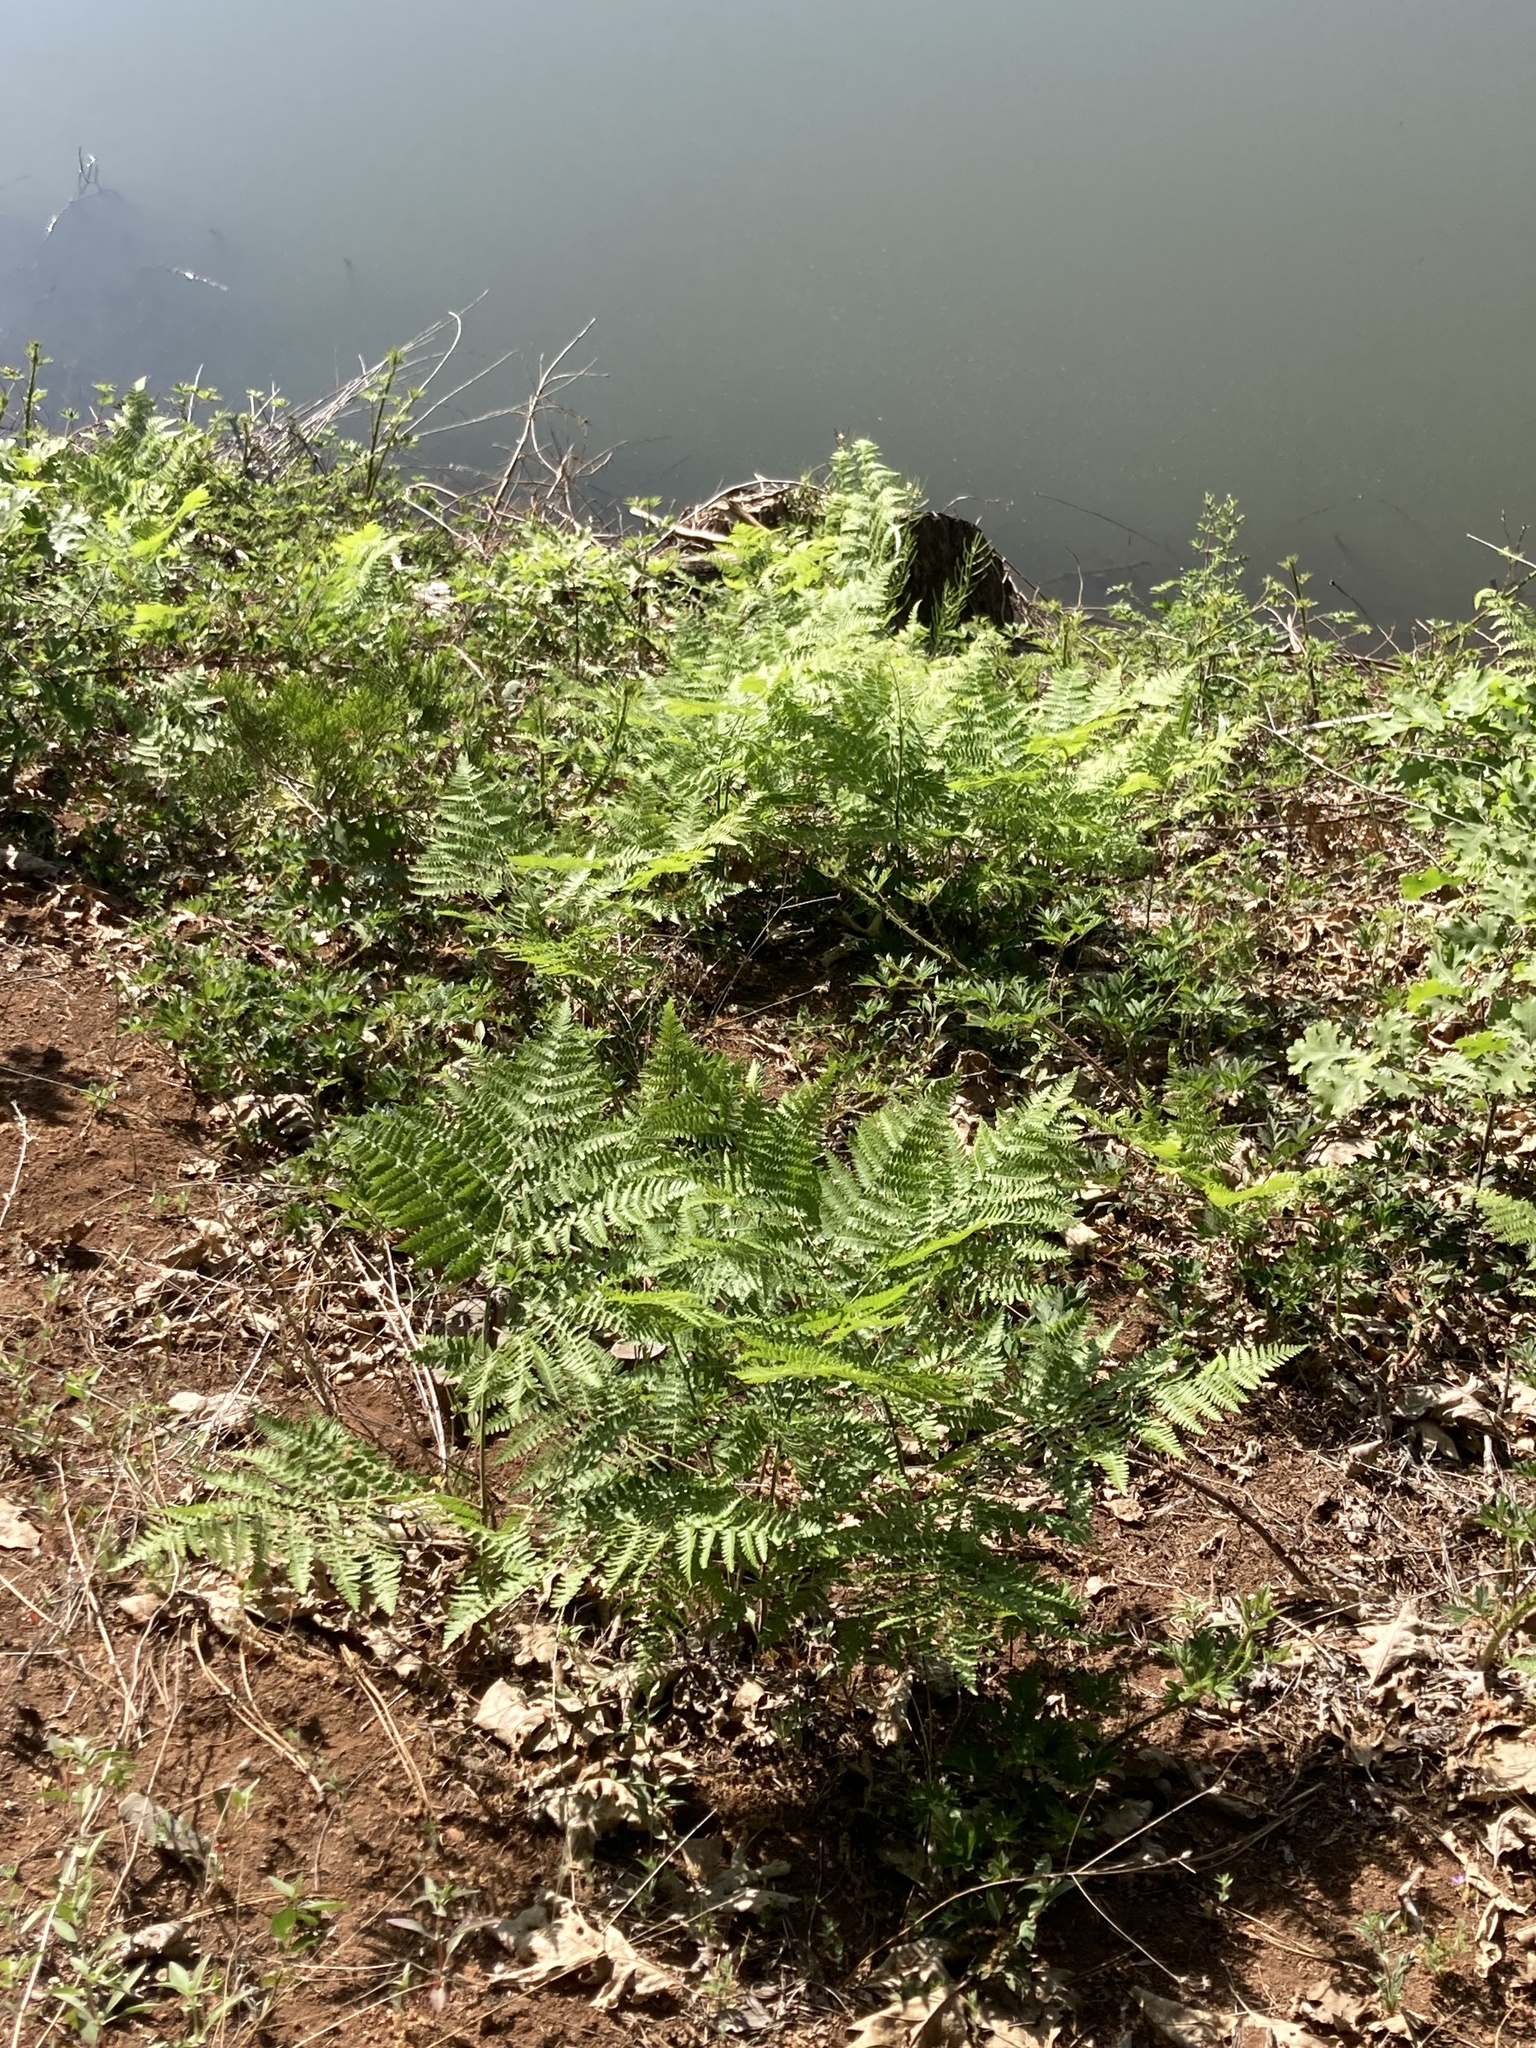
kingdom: Plantae
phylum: Tracheophyta
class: Polypodiopsida
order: Polypodiales
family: Dennstaedtiaceae
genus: Pteridium
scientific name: Pteridium aquilinum
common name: Bracken
